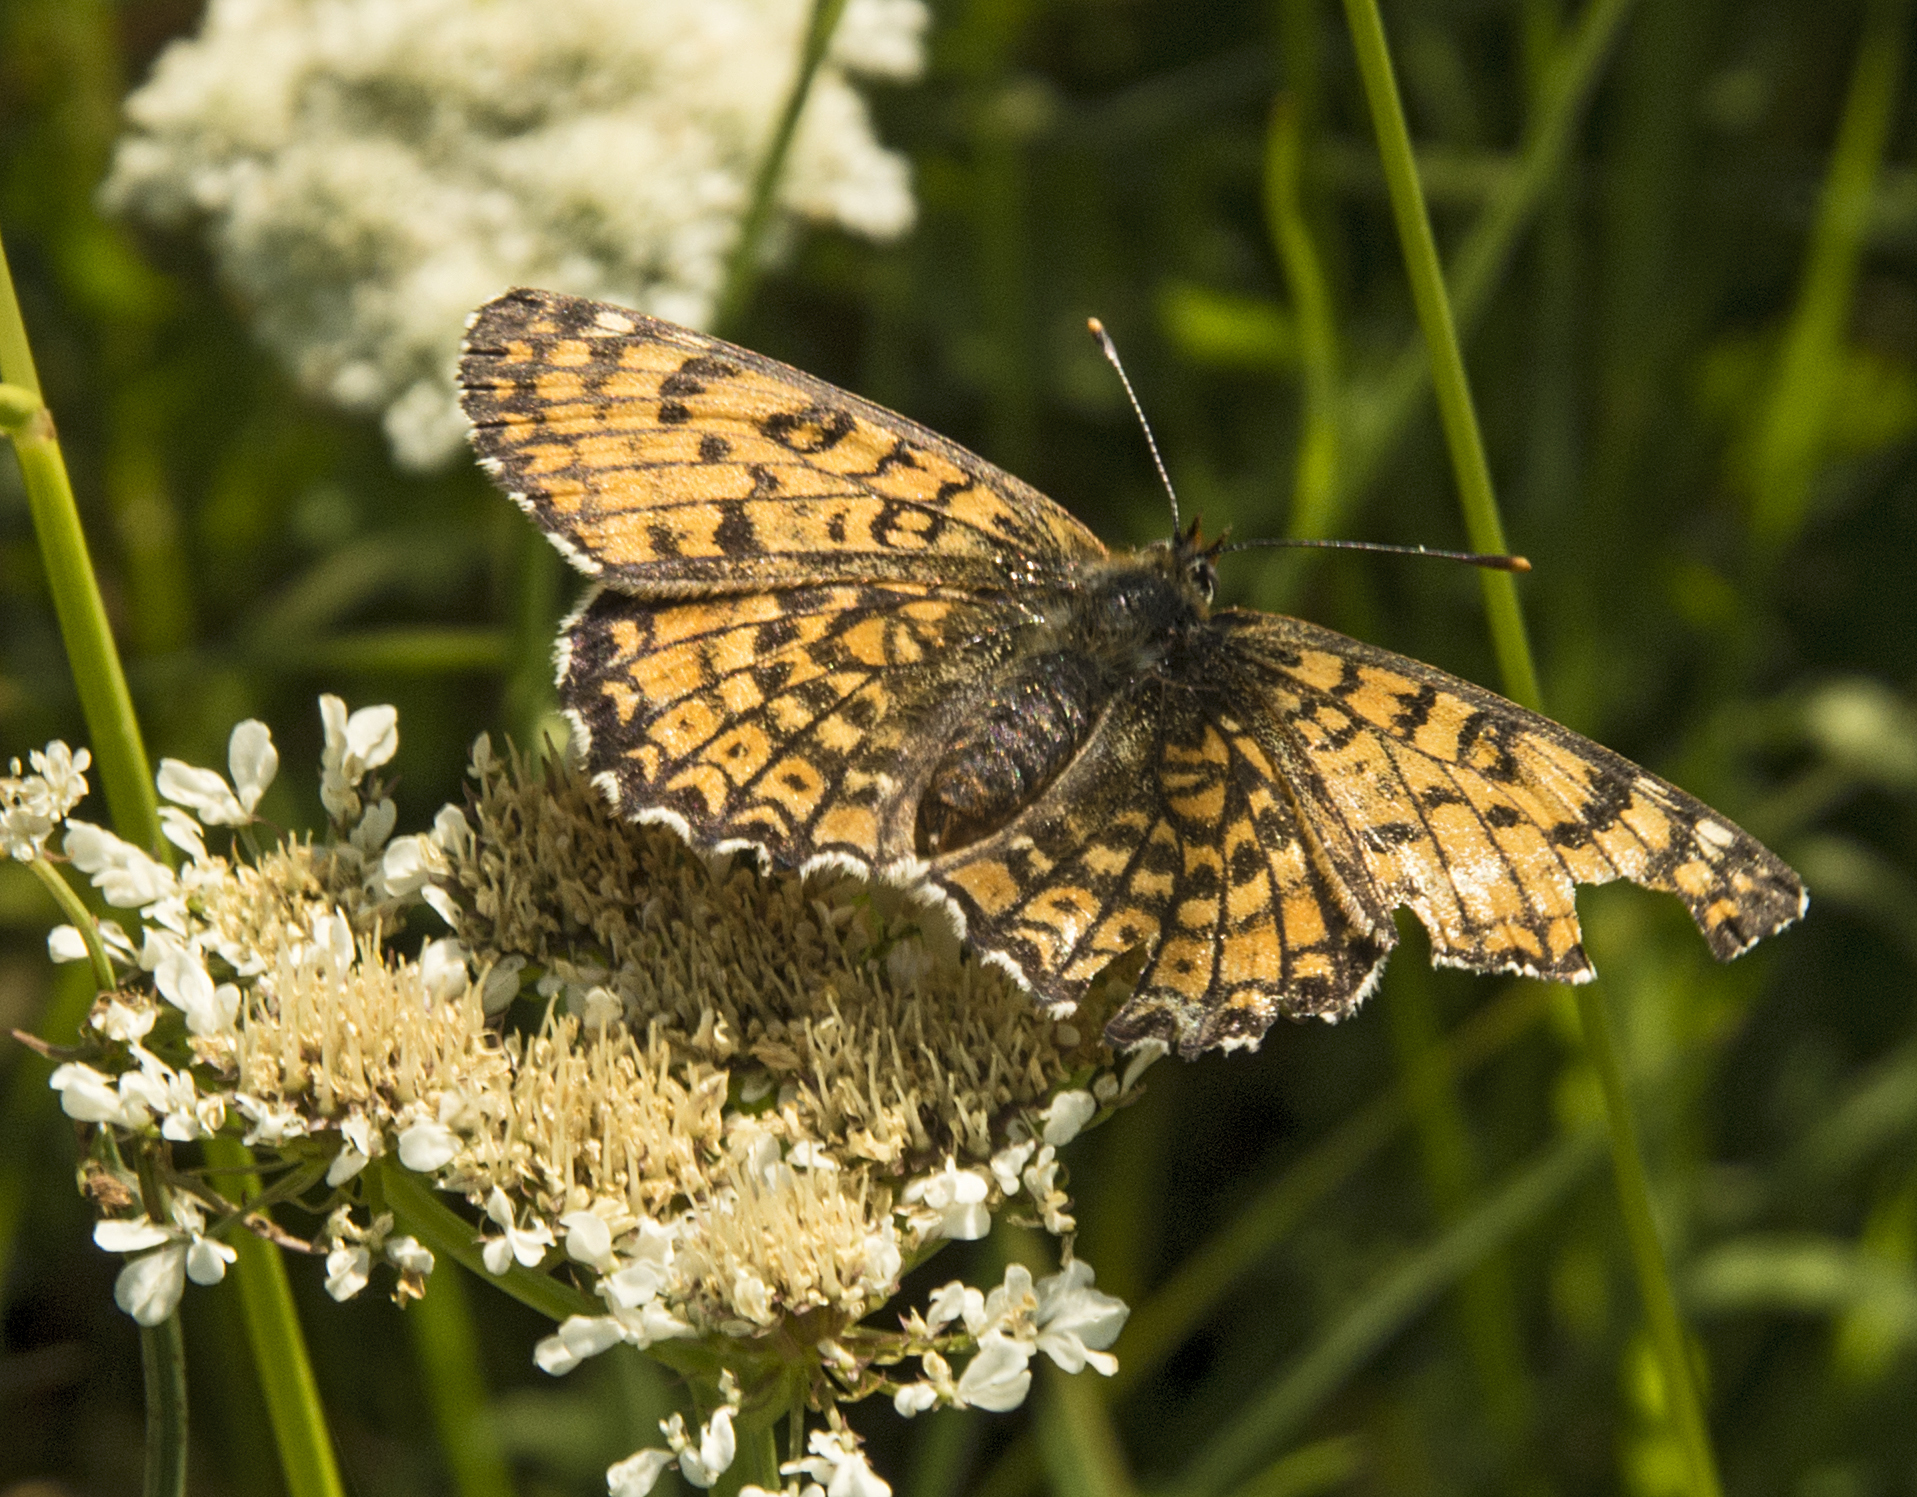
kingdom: Animalia
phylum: Arthropoda
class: Insecta
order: Lepidoptera
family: Nymphalidae
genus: Melitaea
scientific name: Melitaea cinxia
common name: Glanville fritillary
